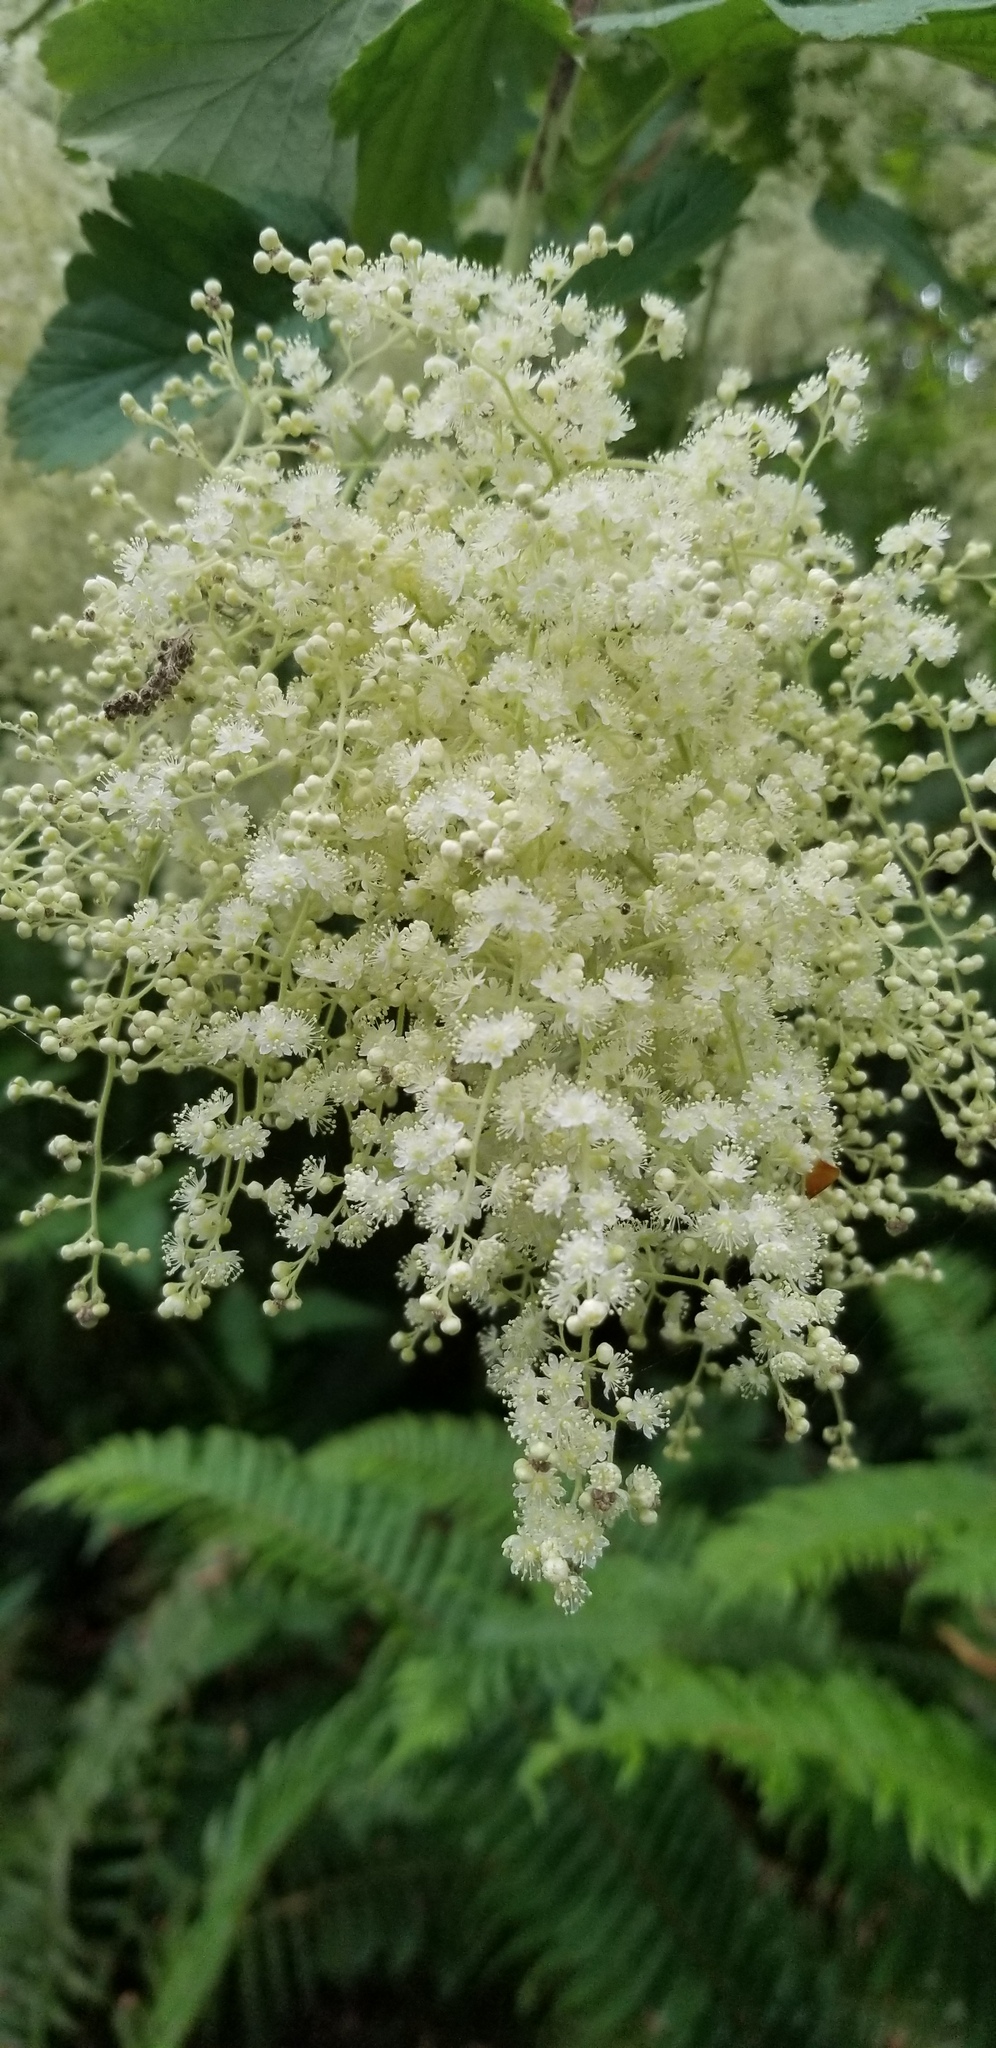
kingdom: Plantae
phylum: Tracheophyta
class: Magnoliopsida
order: Rosales
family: Rosaceae
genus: Holodiscus
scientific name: Holodiscus discolor
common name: Oceanspray
